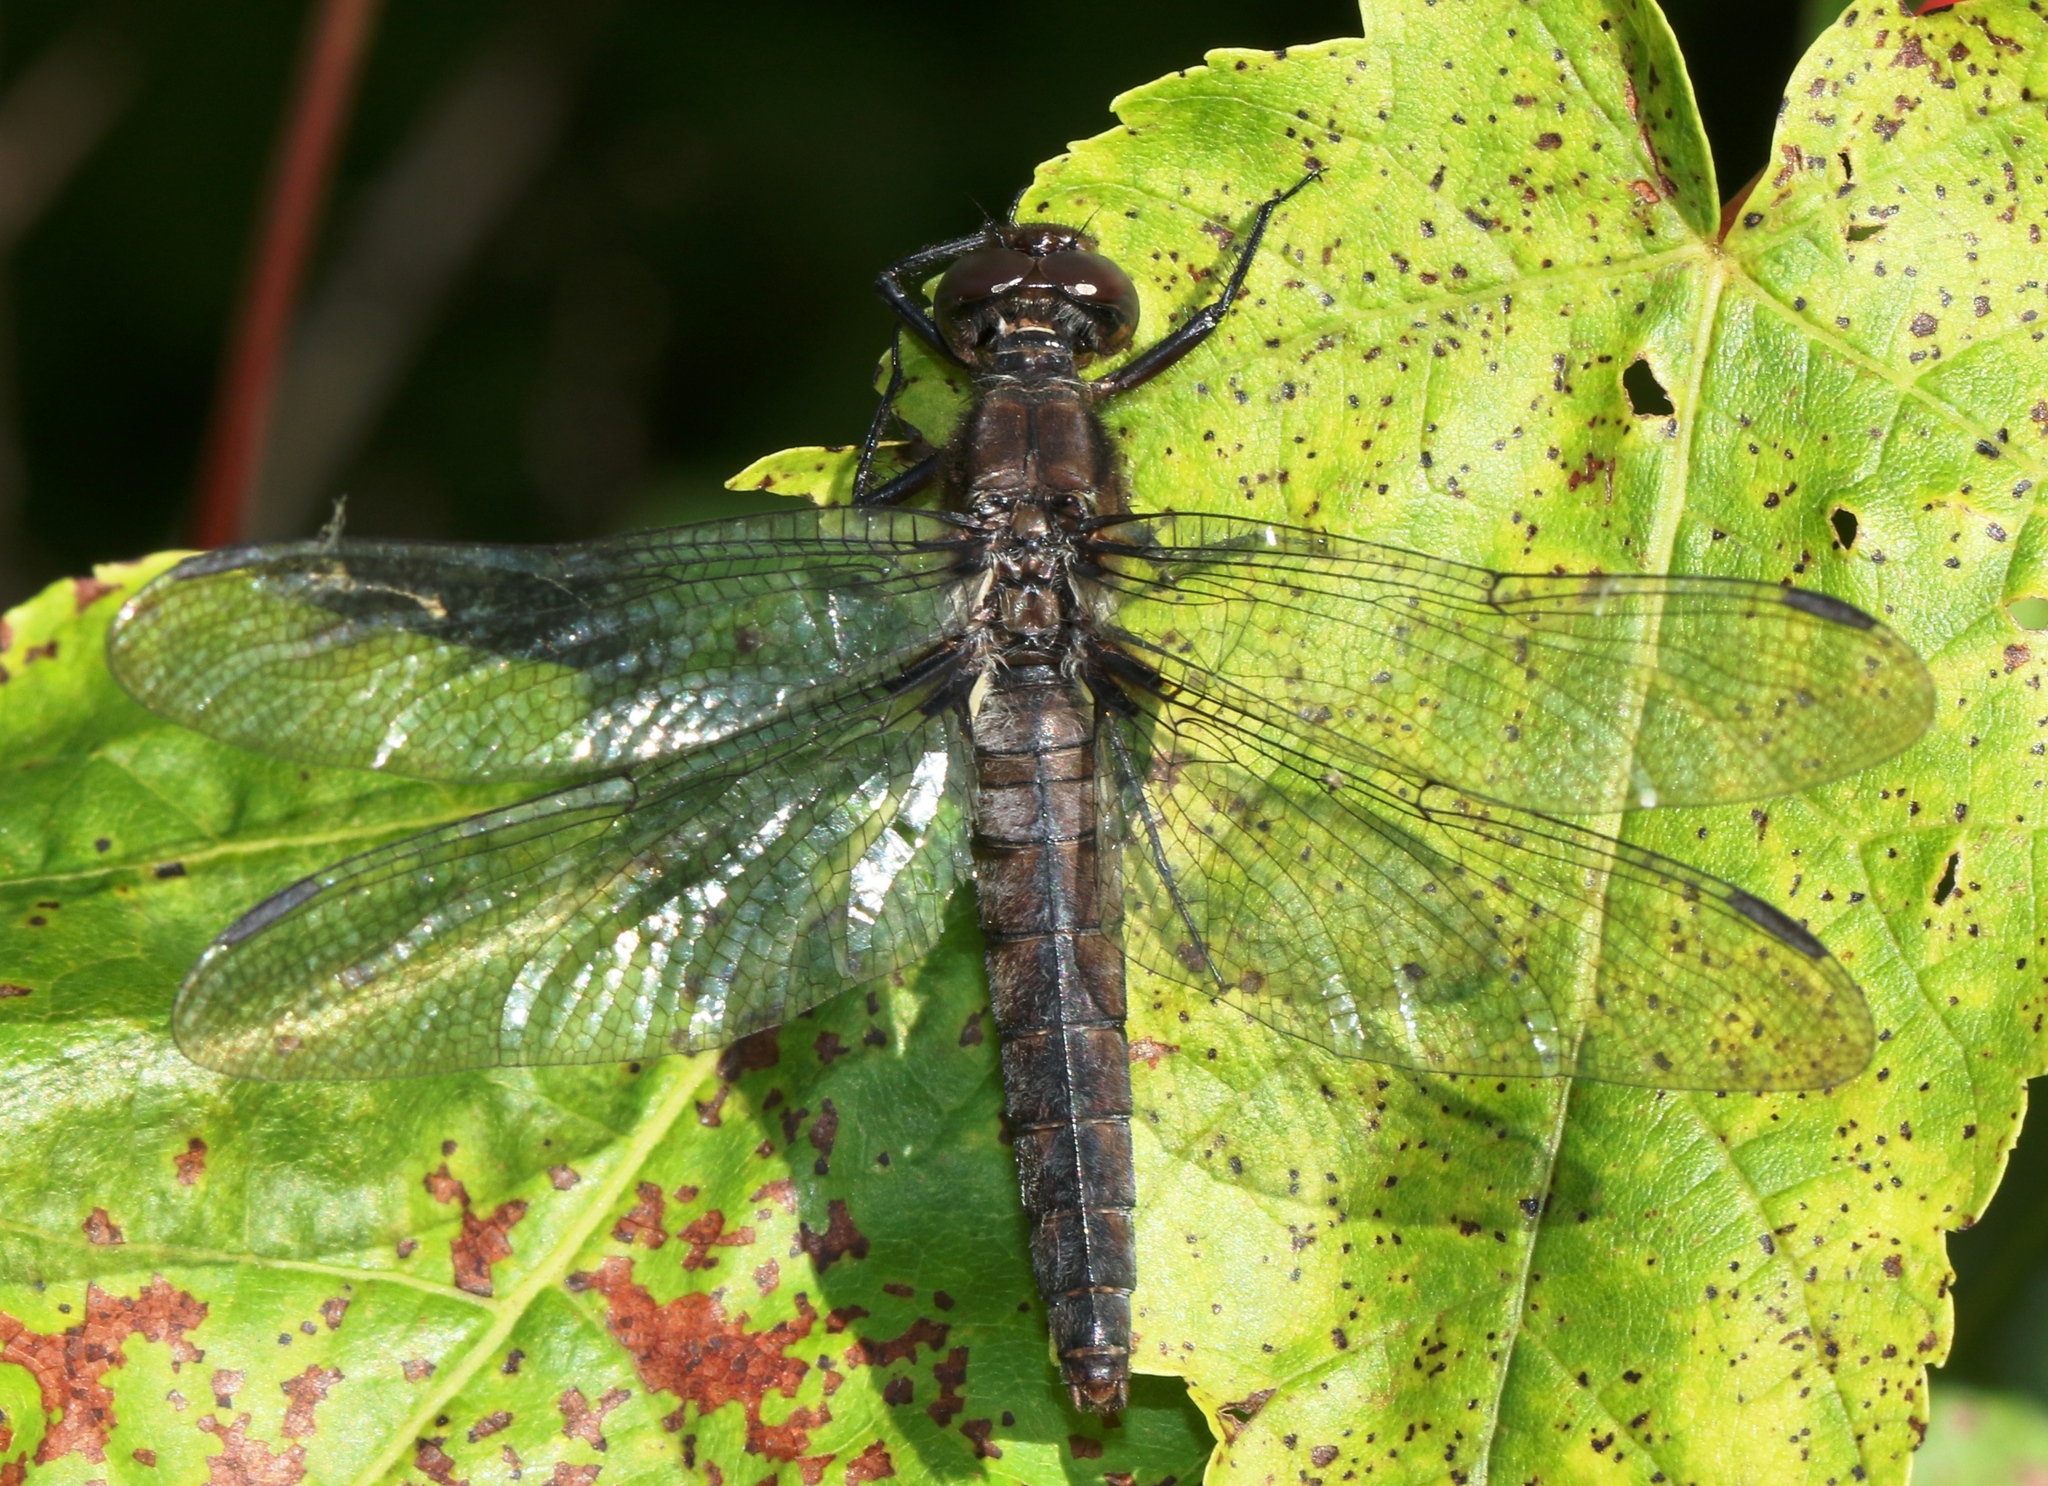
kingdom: Animalia
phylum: Arthropoda
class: Insecta
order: Odonata
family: Libellulidae
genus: Ladona
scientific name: Ladona julia
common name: Chalk-fronted corporal
